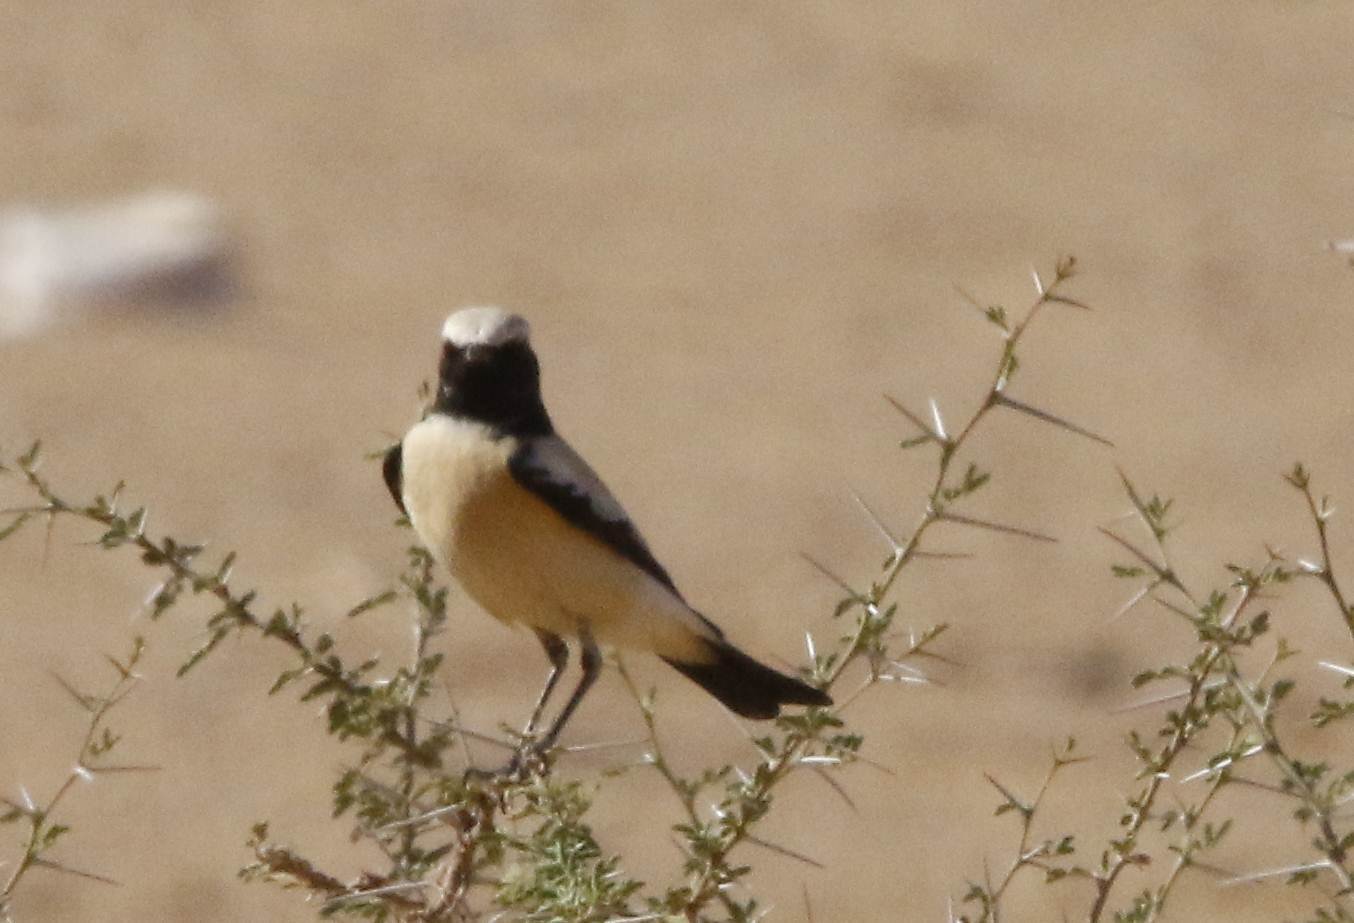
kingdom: Animalia
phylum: Chordata
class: Aves
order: Passeriformes
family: Muscicapidae
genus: Oenanthe
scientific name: Oenanthe deserti
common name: Desert wheatear
